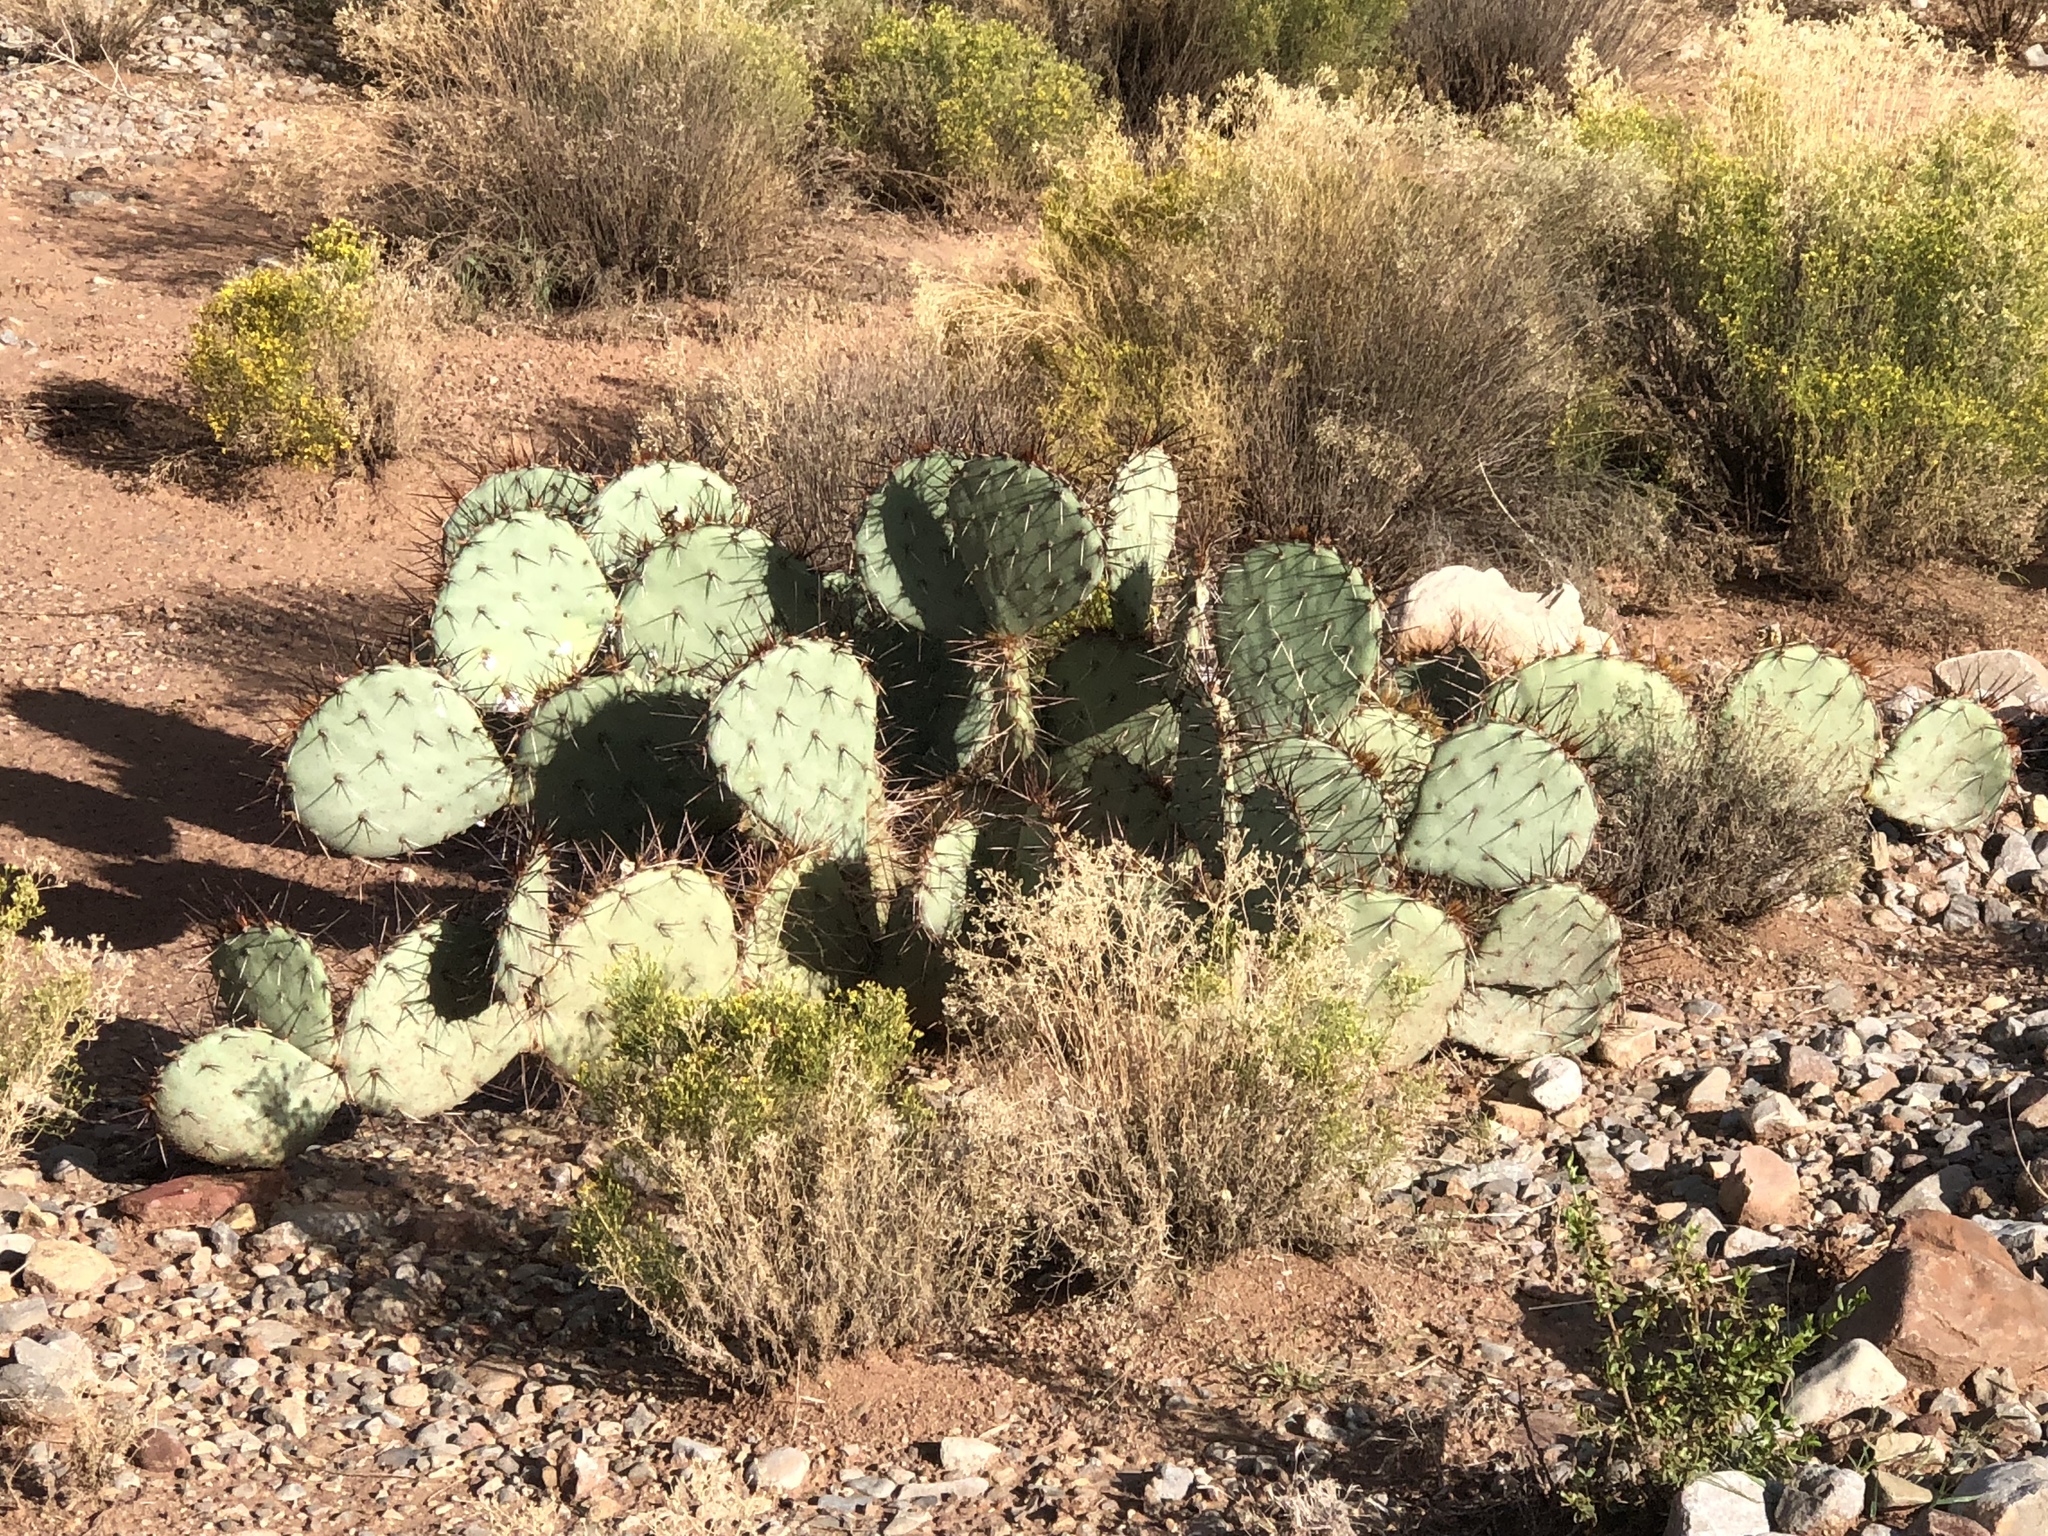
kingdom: Plantae
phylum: Tracheophyta
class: Magnoliopsida
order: Caryophyllales
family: Cactaceae
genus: Opuntia
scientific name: Opuntia phaeacantha
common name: New mexico prickly-pear
